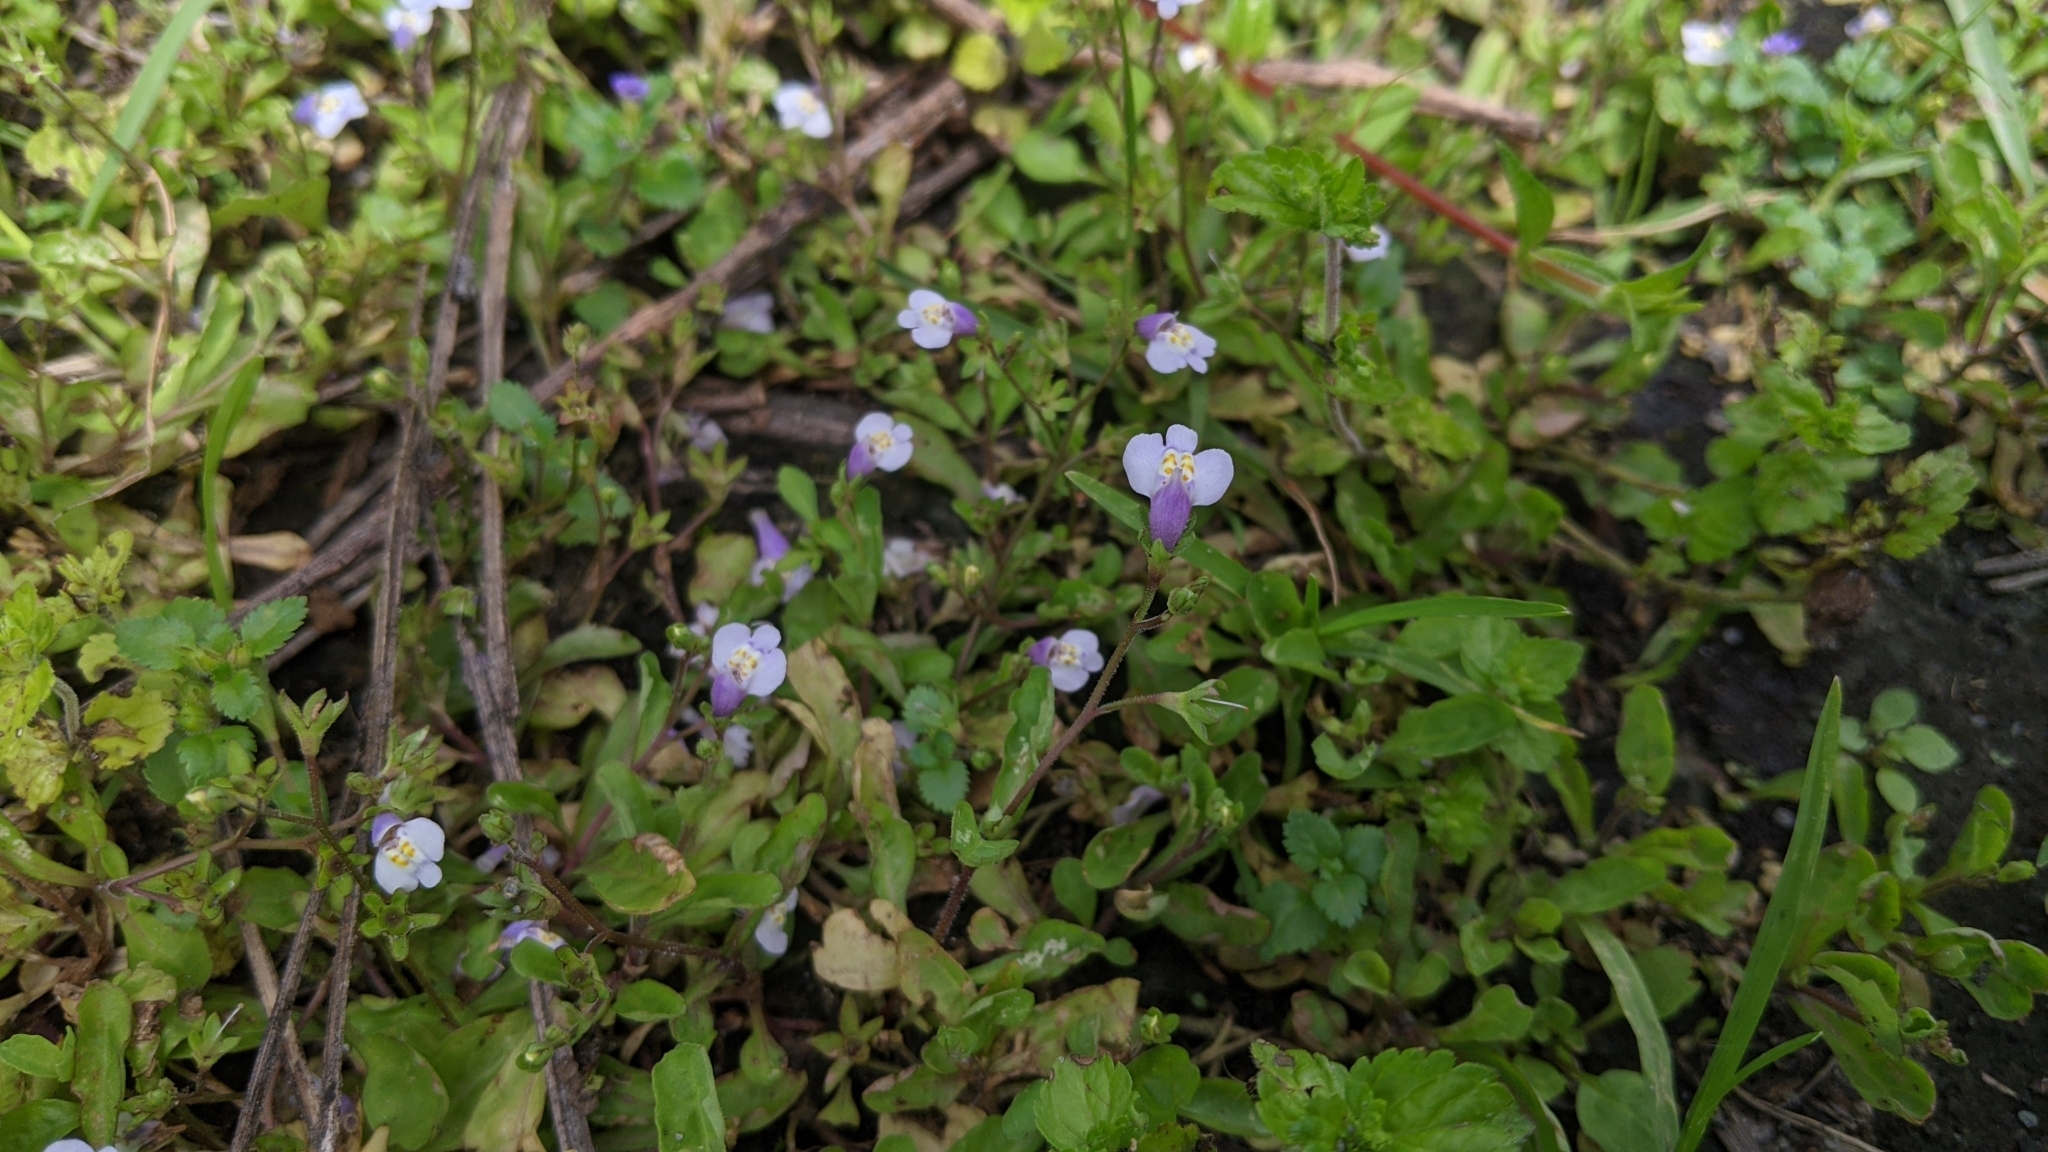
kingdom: Plantae
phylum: Tracheophyta
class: Magnoliopsida
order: Lamiales
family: Mazaceae
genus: Mazus
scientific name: Mazus pumilus
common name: Japanese mazus
